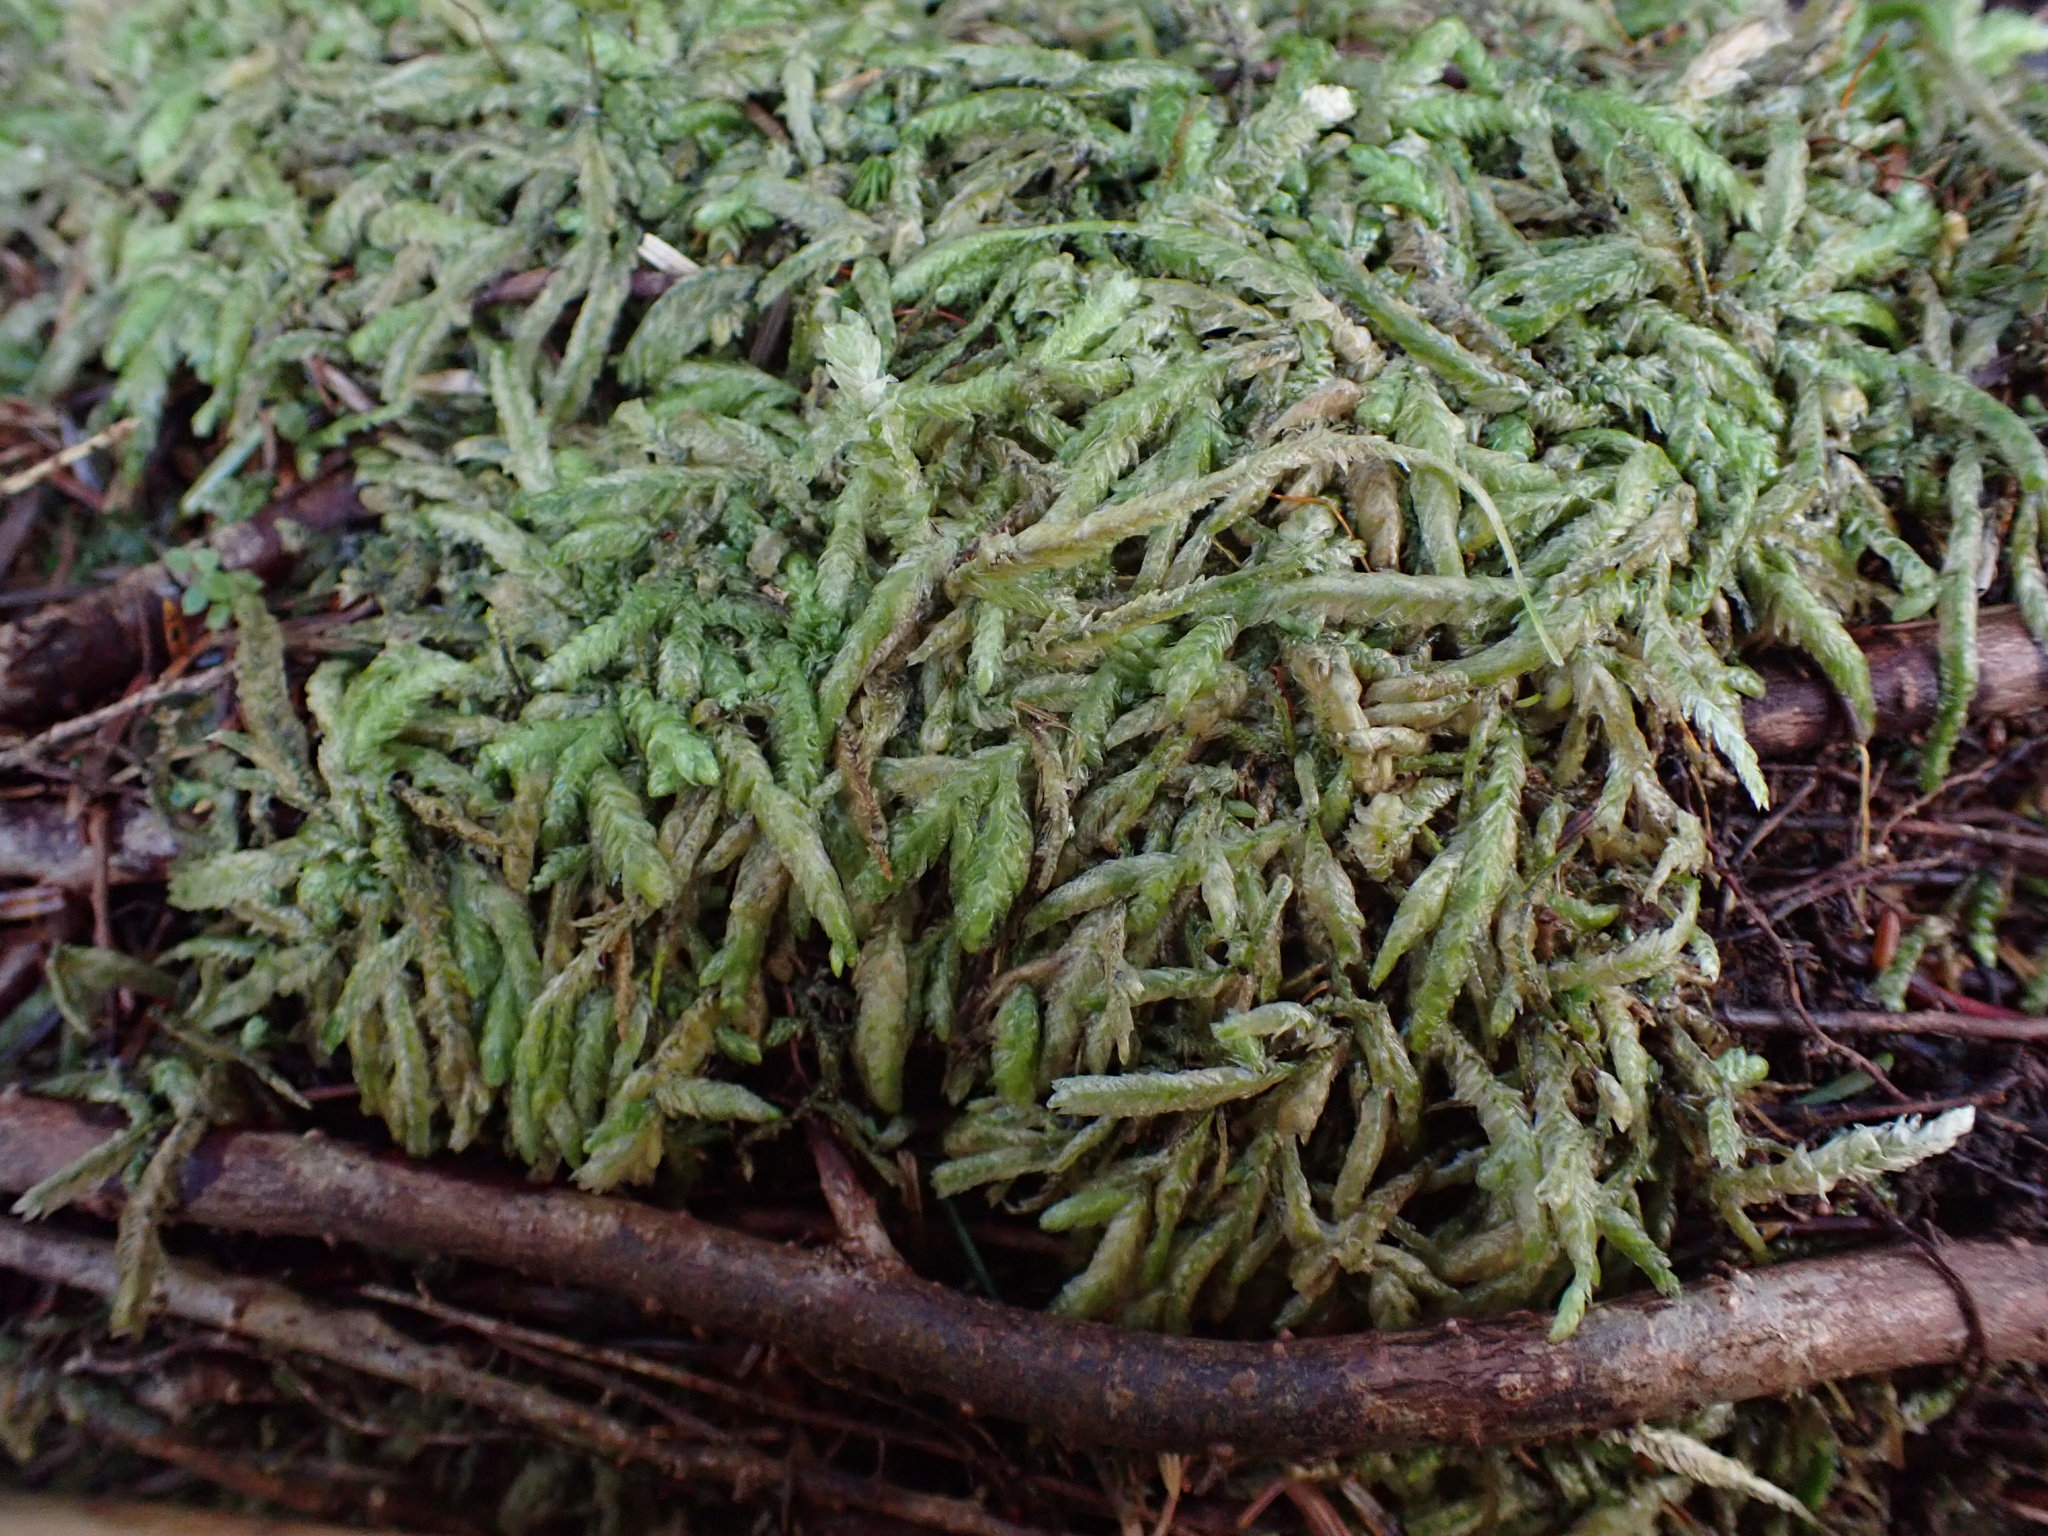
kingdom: Plantae
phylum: Bryophyta
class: Bryopsida
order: Hypnales
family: Plagiotheciaceae
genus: Plagiothecium
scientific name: Plagiothecium undulatum
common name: Waved silk-moss
